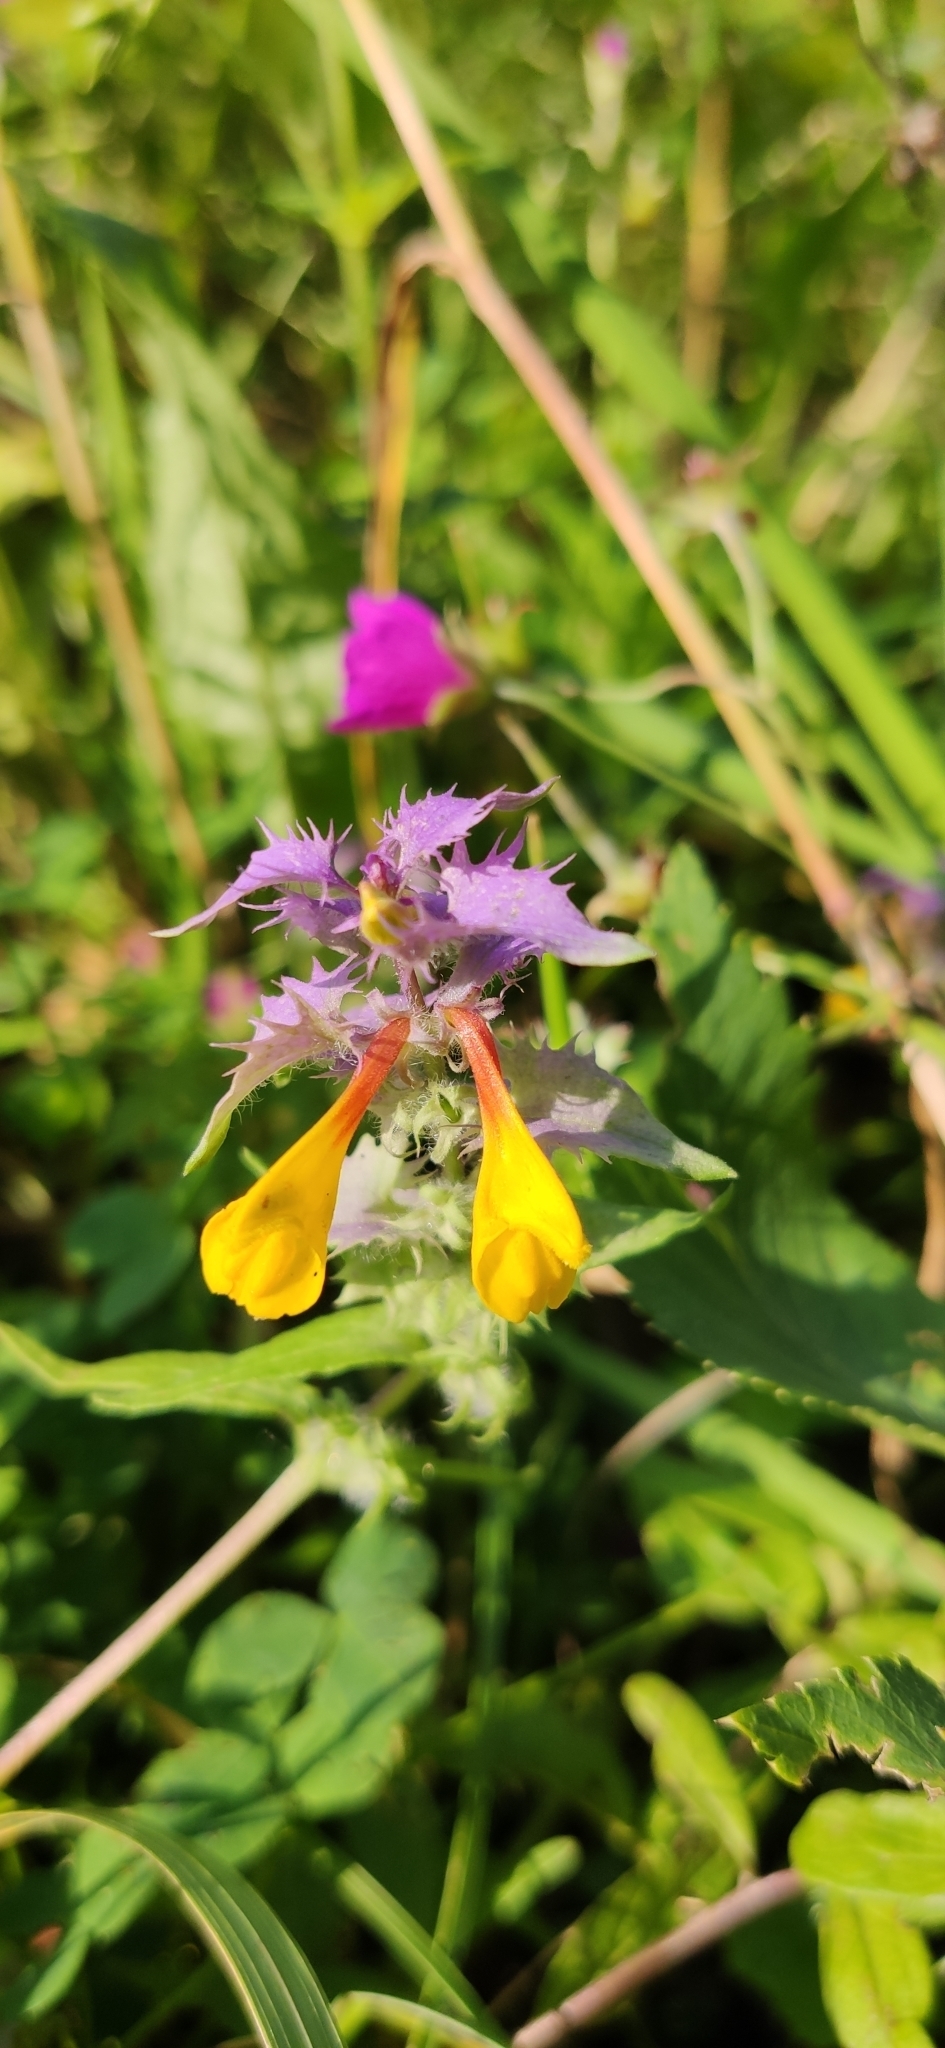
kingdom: Plantae
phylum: Tracheophyta
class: Magnoliopsida
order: Lamiales
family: Orobanchaceae
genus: Melampyrum
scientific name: Melampyrum nemorosum
